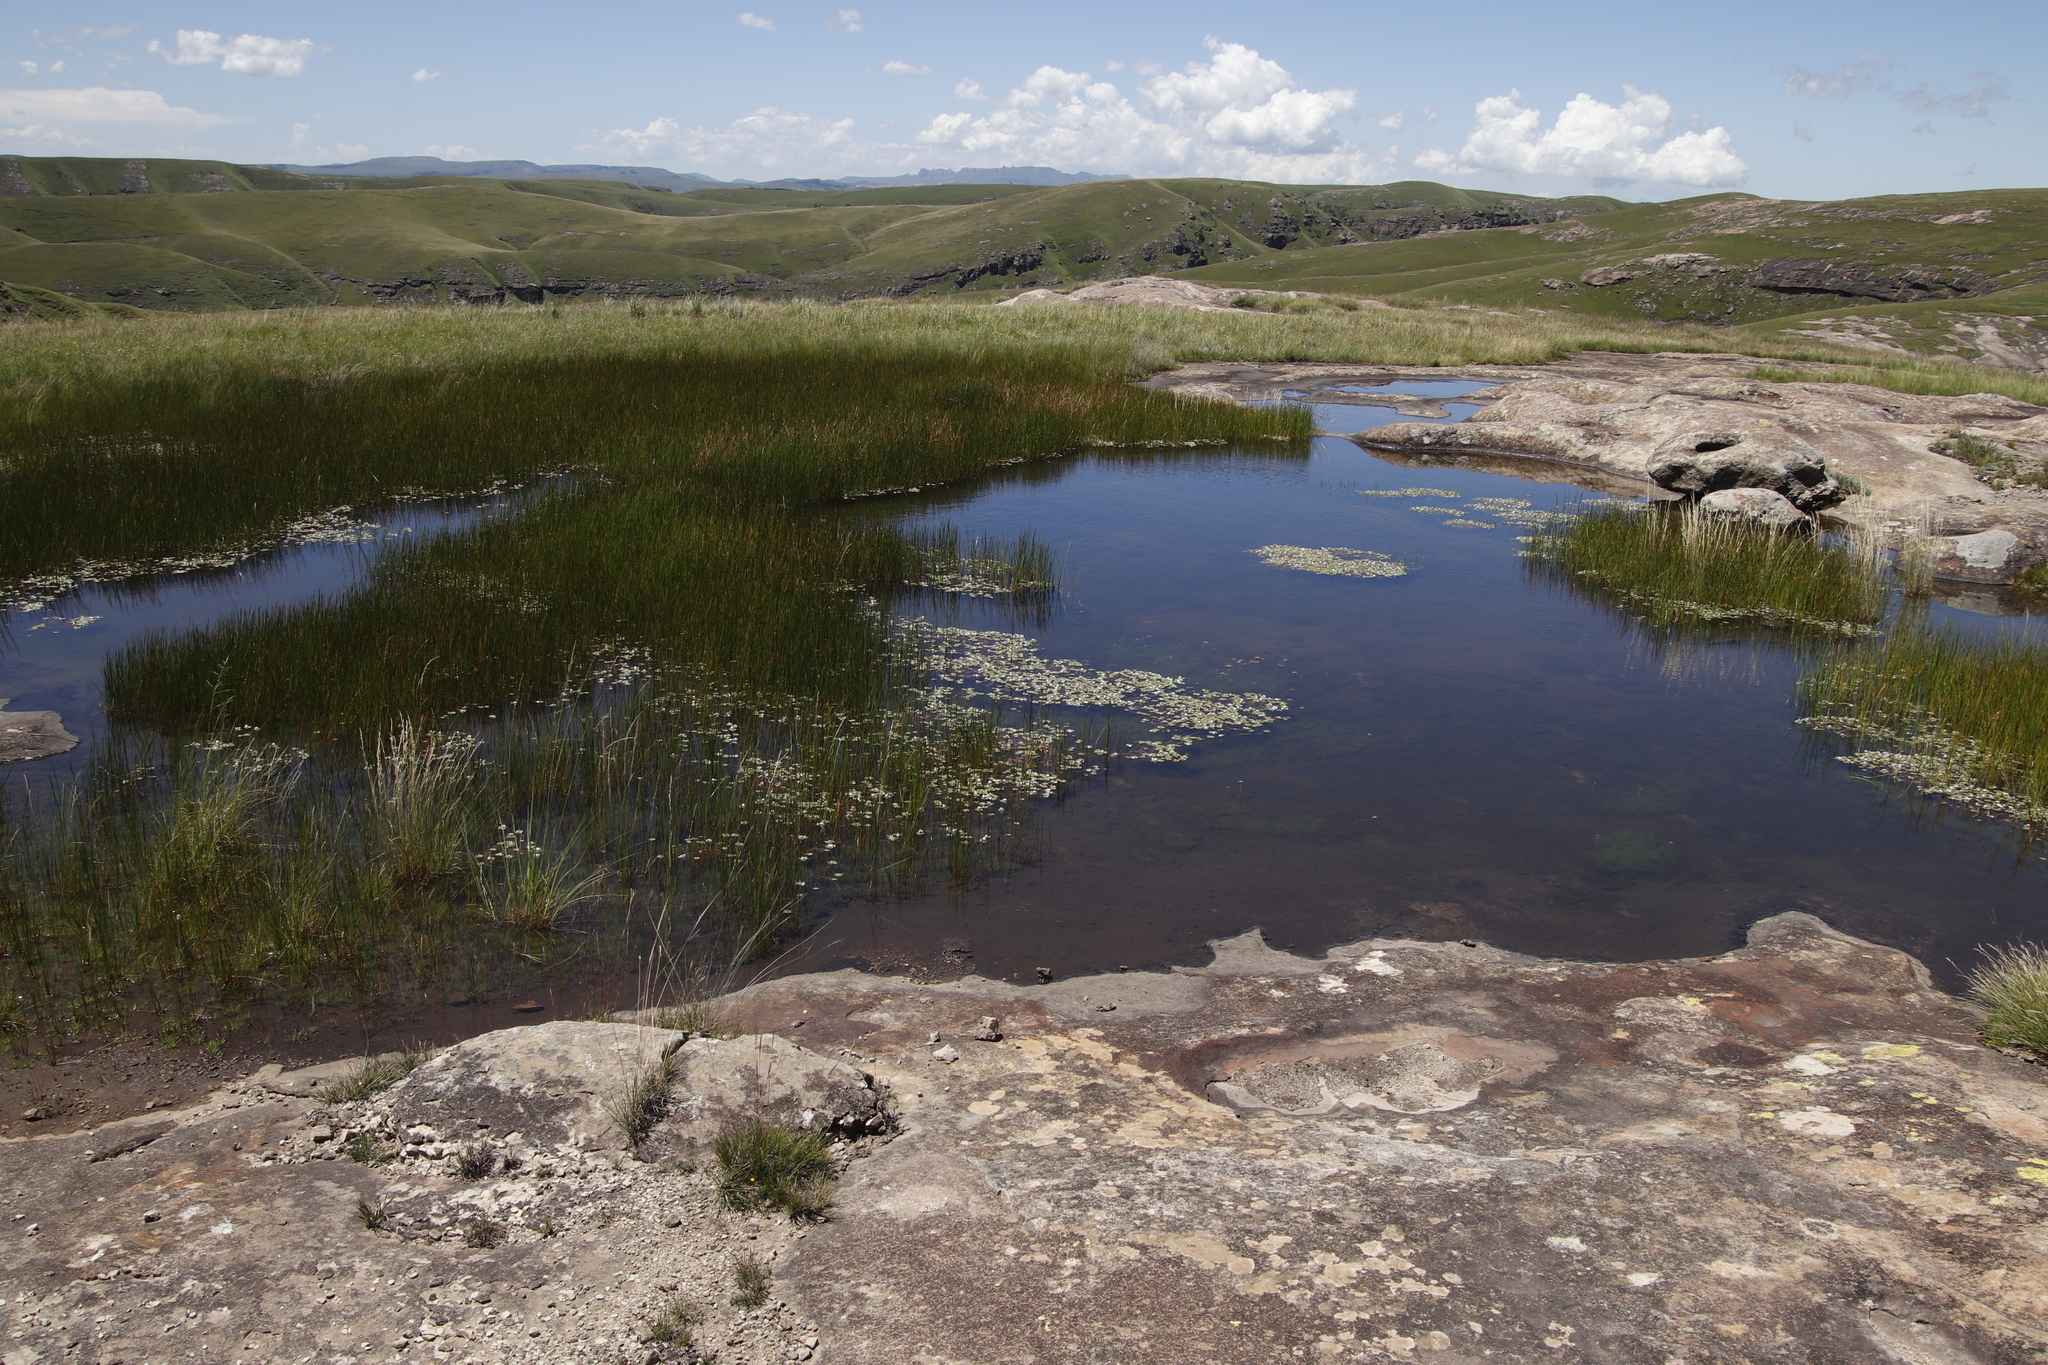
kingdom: Plantae
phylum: Tracheophyta
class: Magnoliopsida
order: Lamiales
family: Linderniaceae
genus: Lindernia
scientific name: Lindernia conferta
